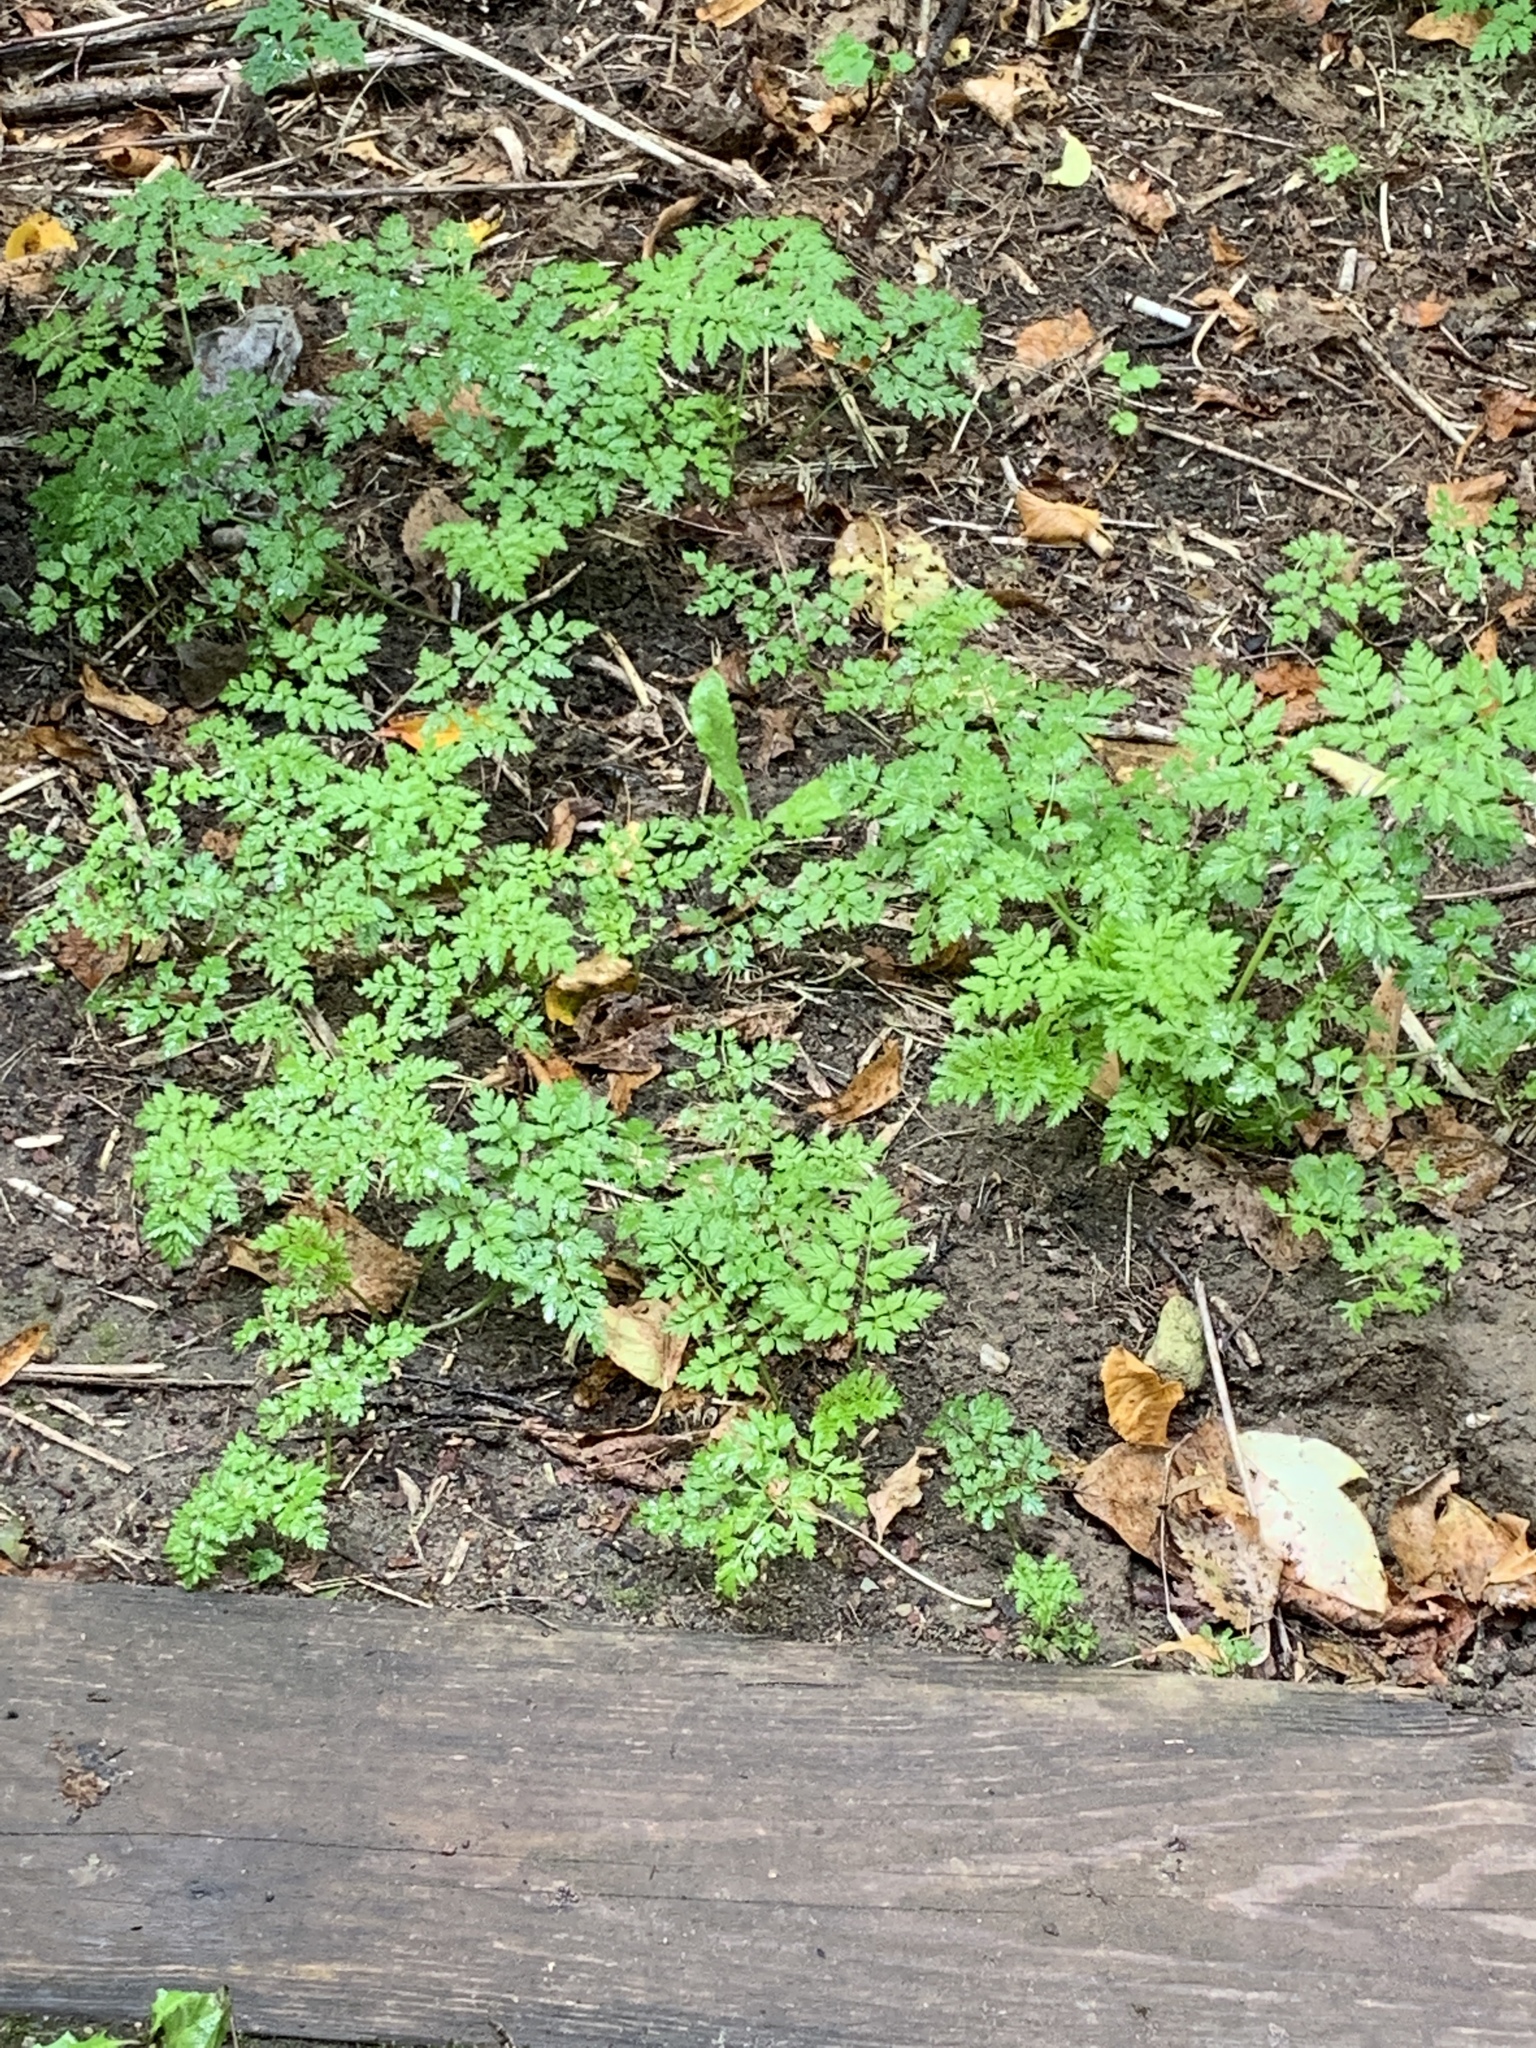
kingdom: Plantae
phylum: Tracheophyta
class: Magnoliopsida
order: Apiales
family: Apiaceae
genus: Anthriscus
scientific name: Anthriscus sylvestris
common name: Cow parsley
